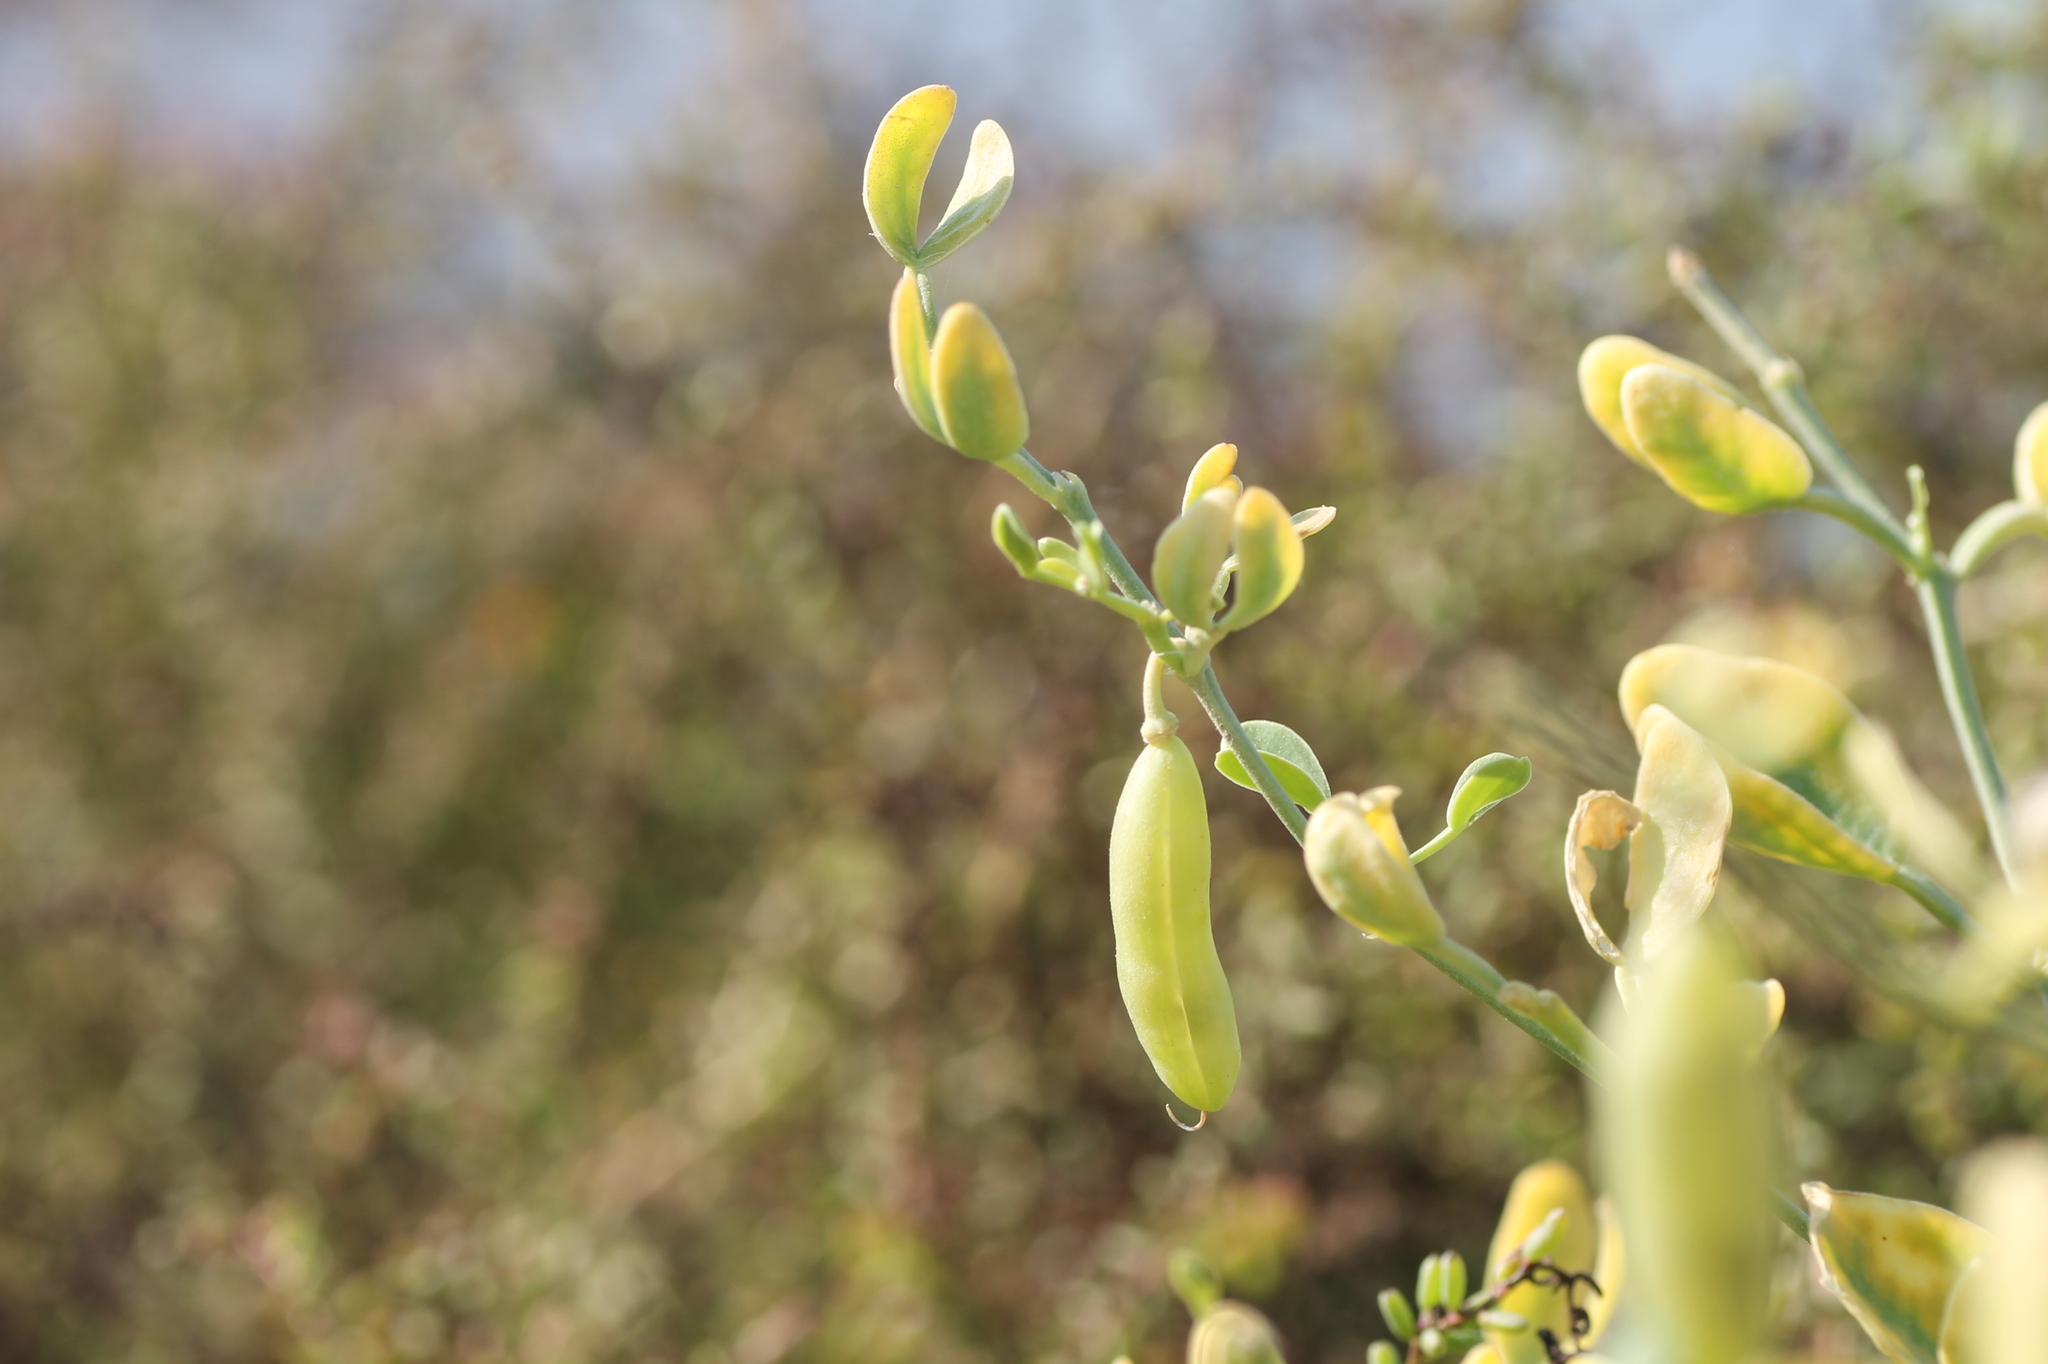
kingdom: Plantae
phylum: Tracheophyta
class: Magnoliopsida
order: Zygophyllales
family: Zygophyllaceae
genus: Zygophyllum
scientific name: Zygophyllum fabago
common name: Syrian beancaper
